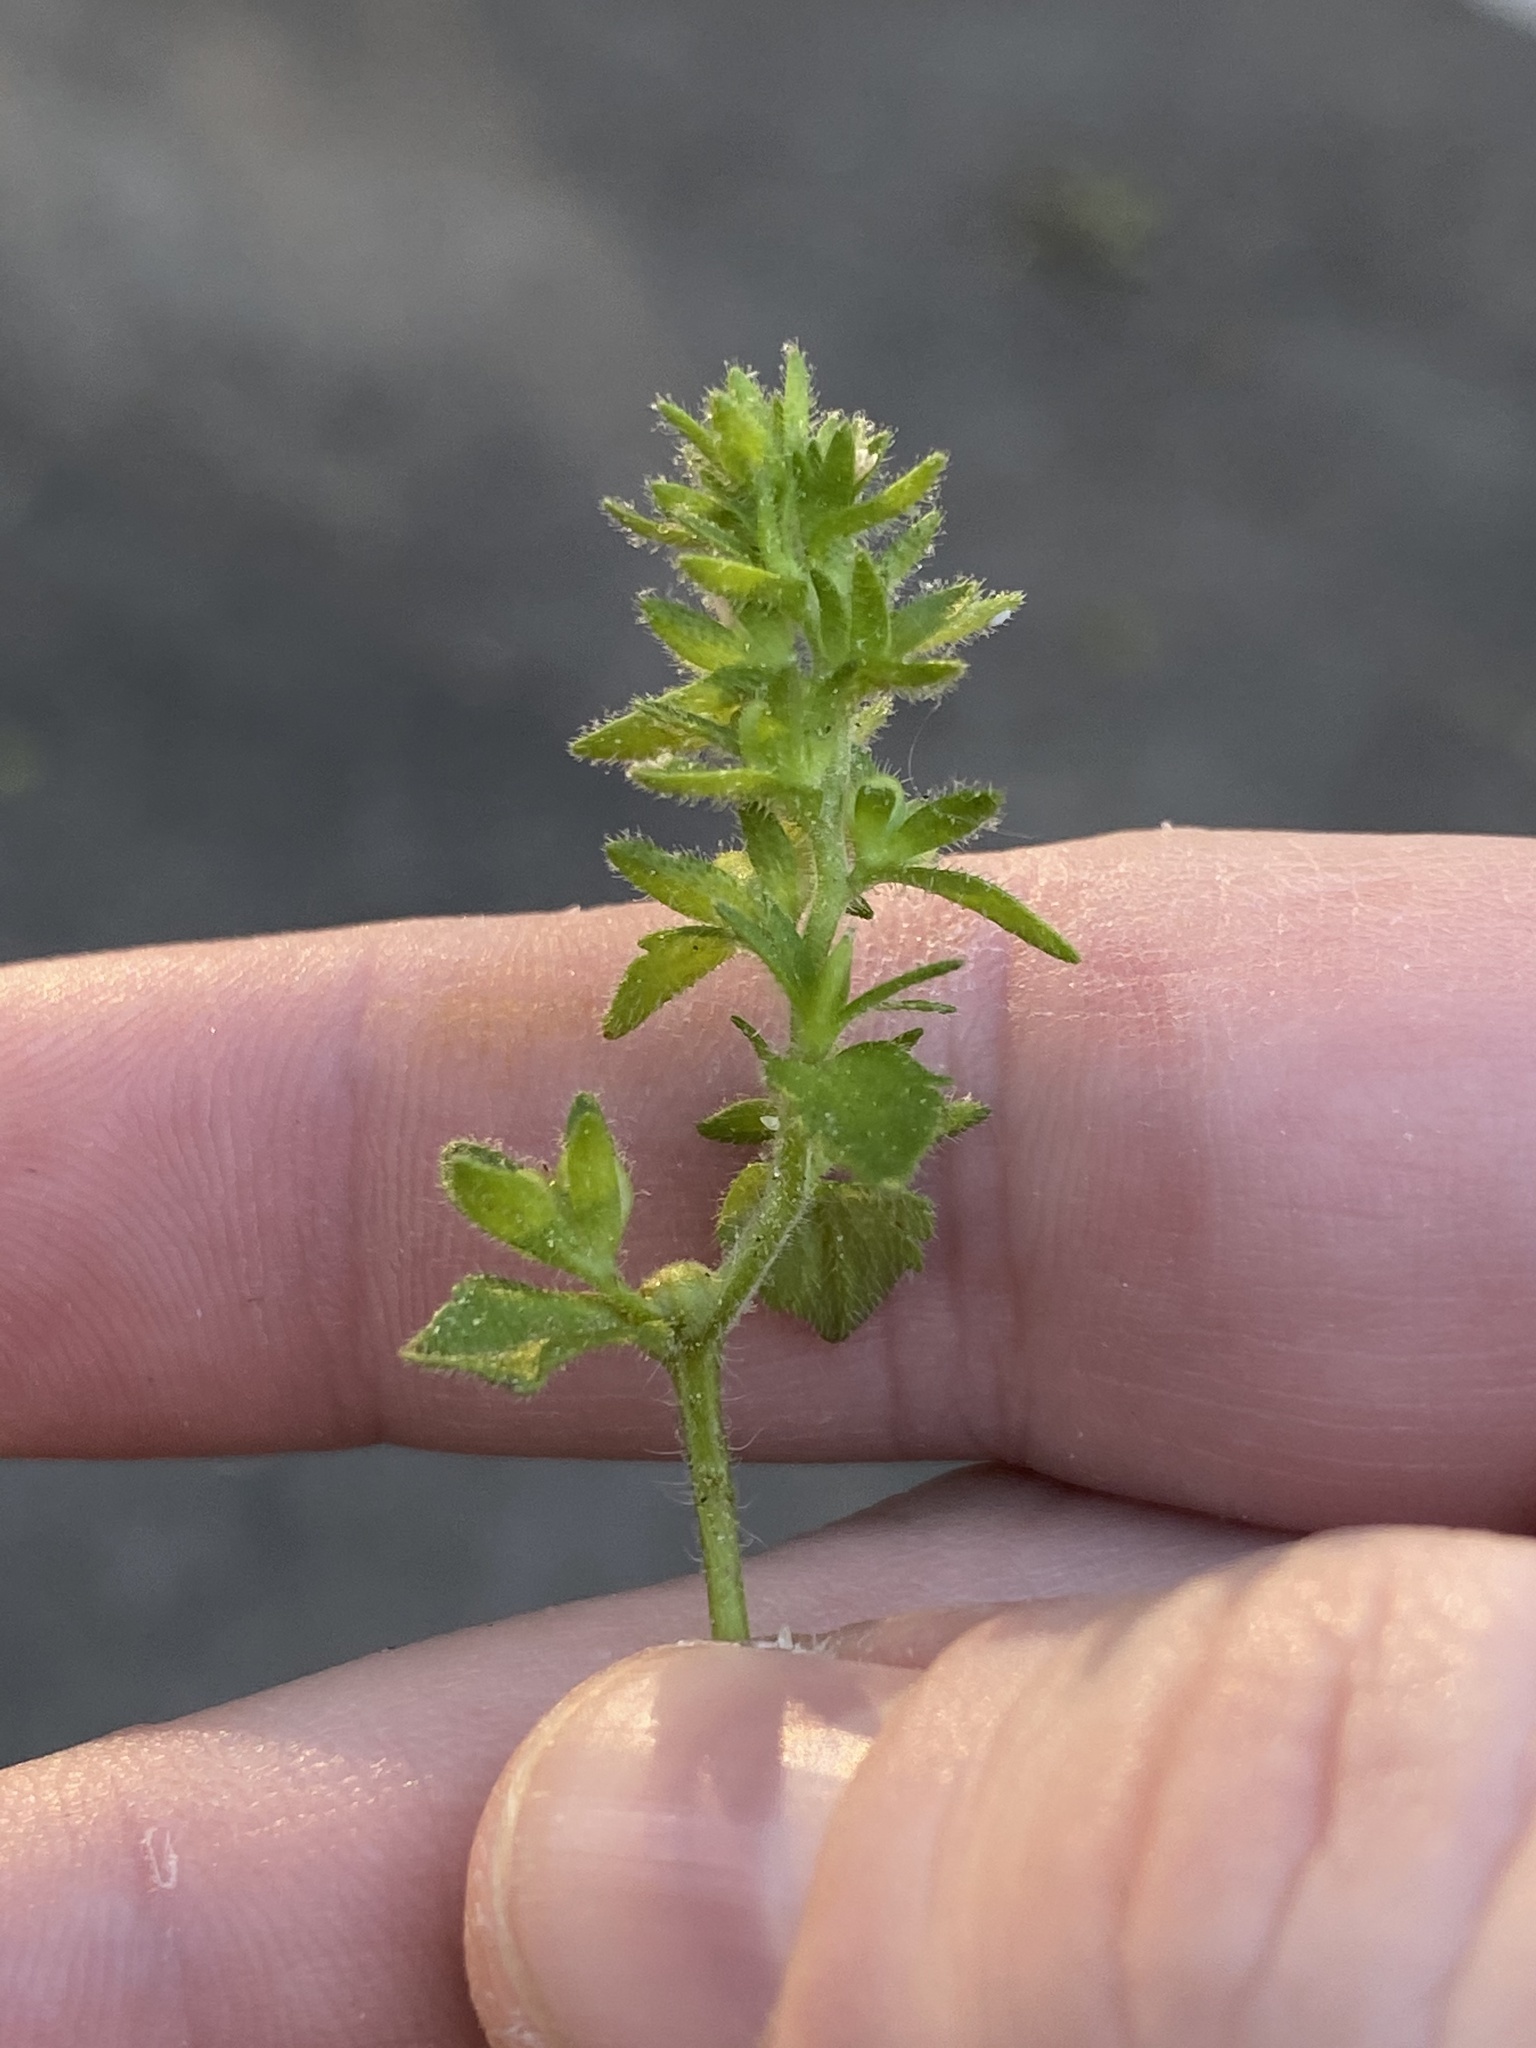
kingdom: Plantae
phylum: Tracheophyta
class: Magnoliopsida
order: Lamiales
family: Plantaginaceae
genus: Veronica
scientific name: Veronica arvensis
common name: Corn speedwell
